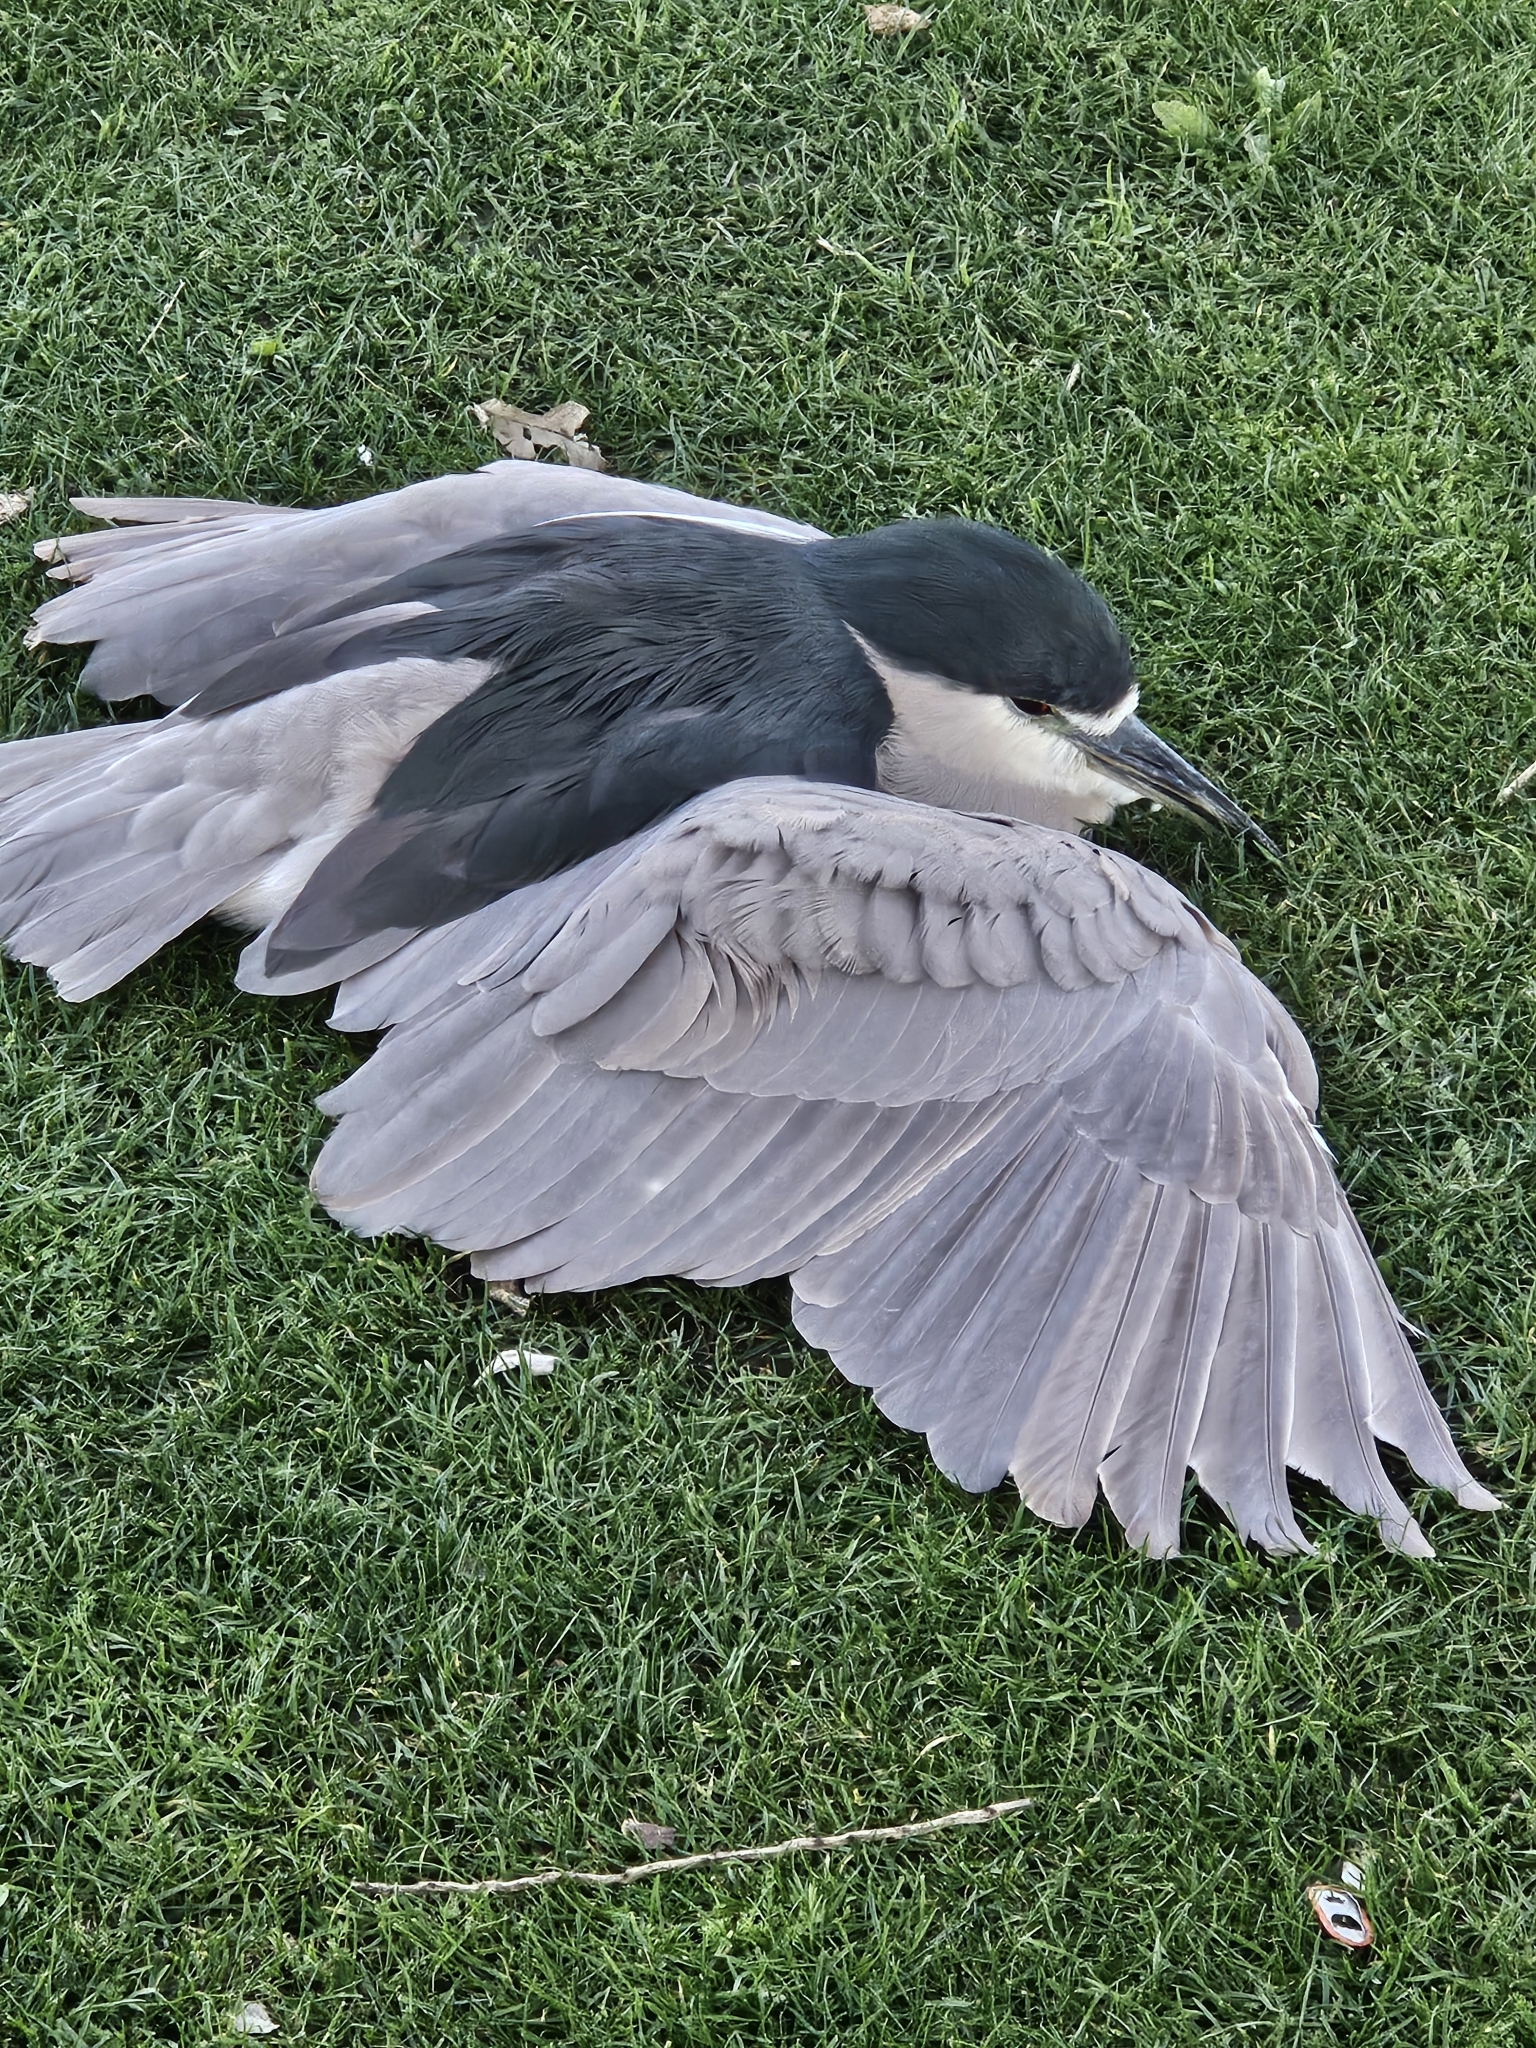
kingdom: Animalia
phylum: Chordata
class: Aves
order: Pelecaniformes
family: Ardeidae
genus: Nycticorax
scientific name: Nycticorax nycticorax
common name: Black-crowned night heron
